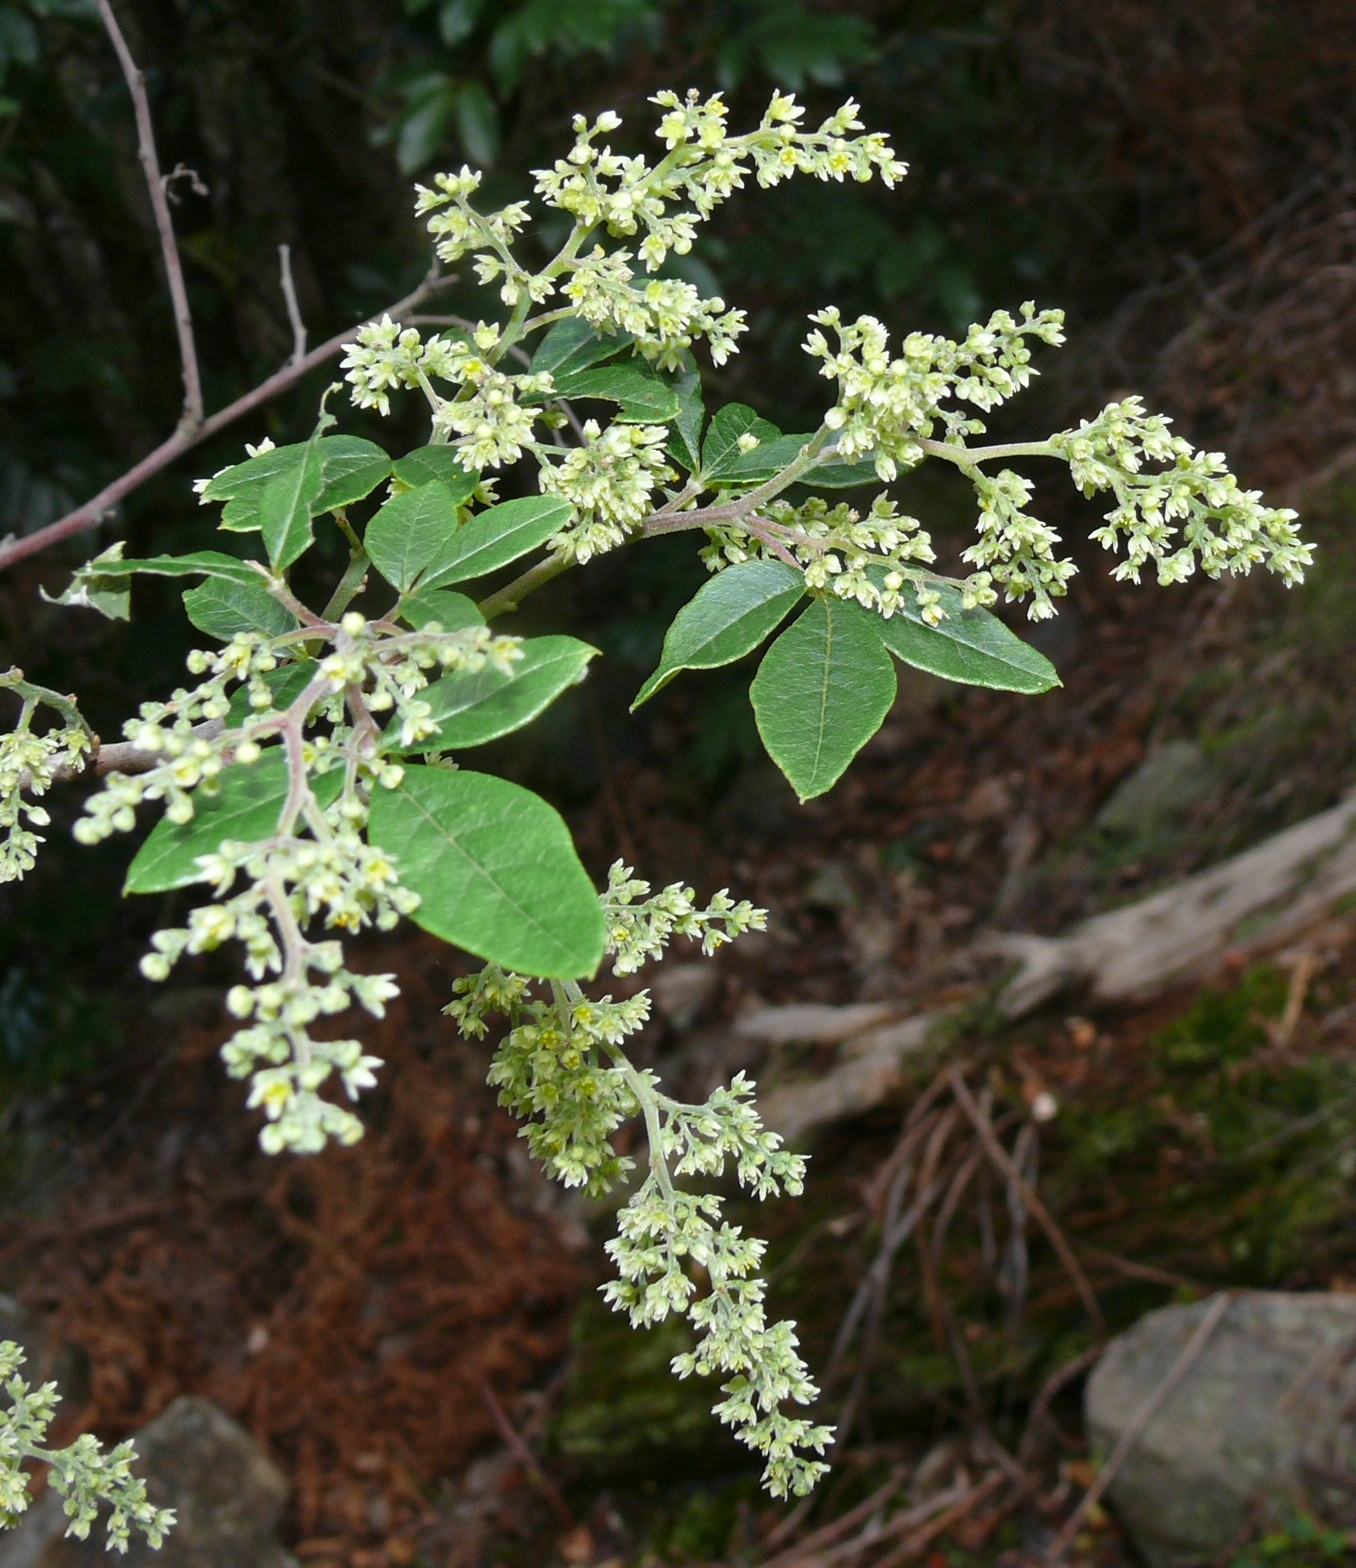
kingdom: Plantae
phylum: Tracheophyta
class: Magnoliopsida
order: Sapindales
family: Anacardiaceae
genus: Searsia
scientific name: Searsia tomentosa
